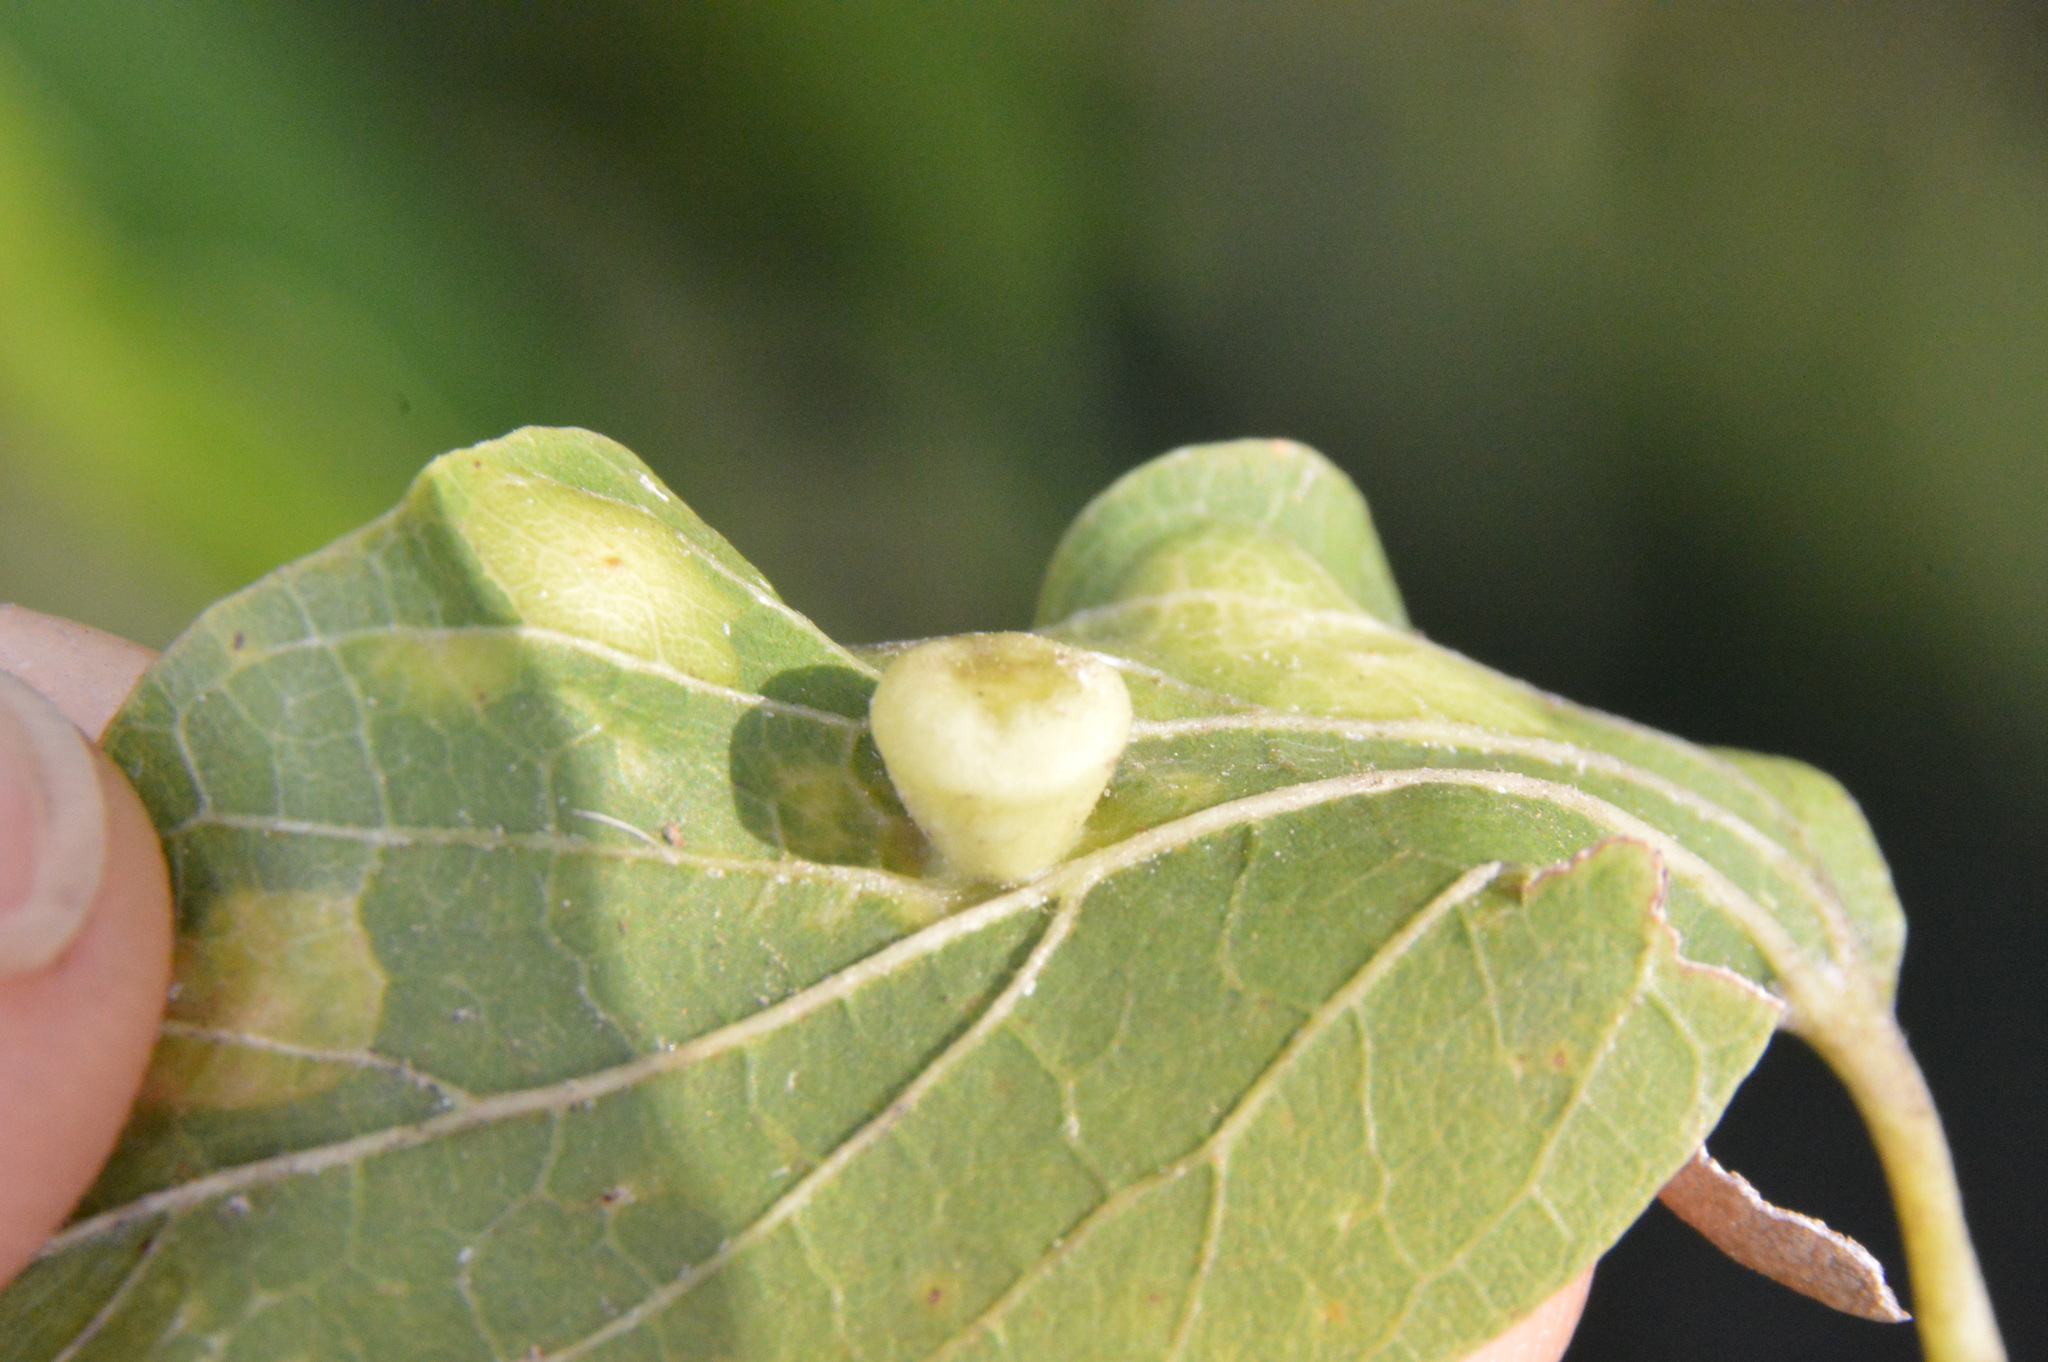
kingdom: Animalia
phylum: Arthropoda
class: Insecta
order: Hemiptera
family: Aphalaridae
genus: Pachypsylla
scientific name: Pachypsylla celtidismamma
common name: Hackberry nipplegall psyllid
